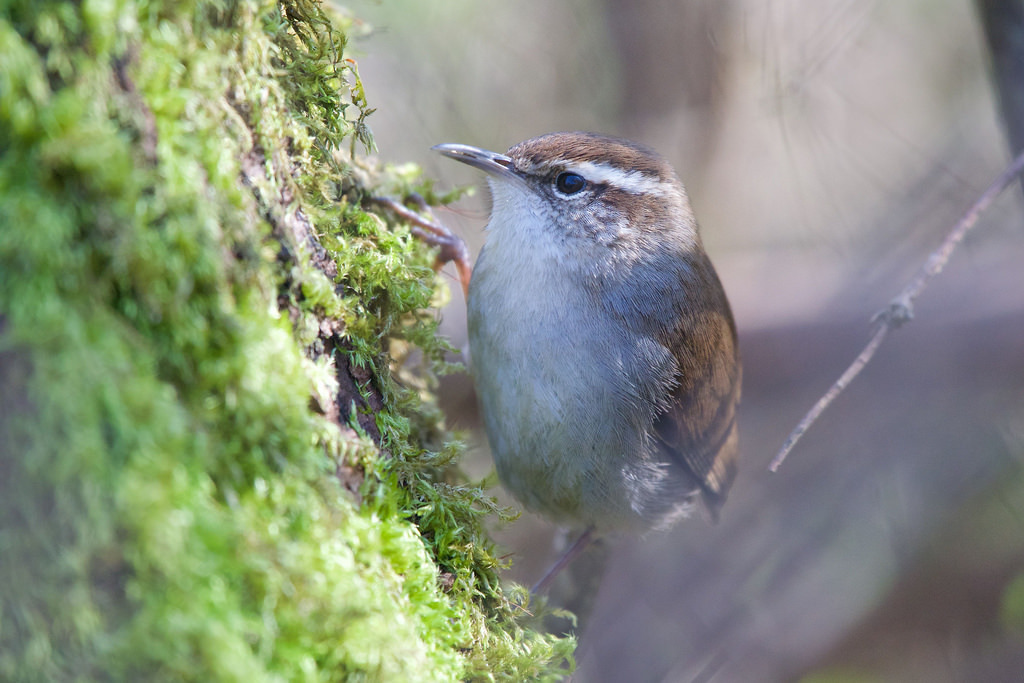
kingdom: Animalia
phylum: Chordata
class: Aves
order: Passeriformes
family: Troglodytidae
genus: Thryomanes
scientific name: Thryomanes bewickii
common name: Bewick's wren
